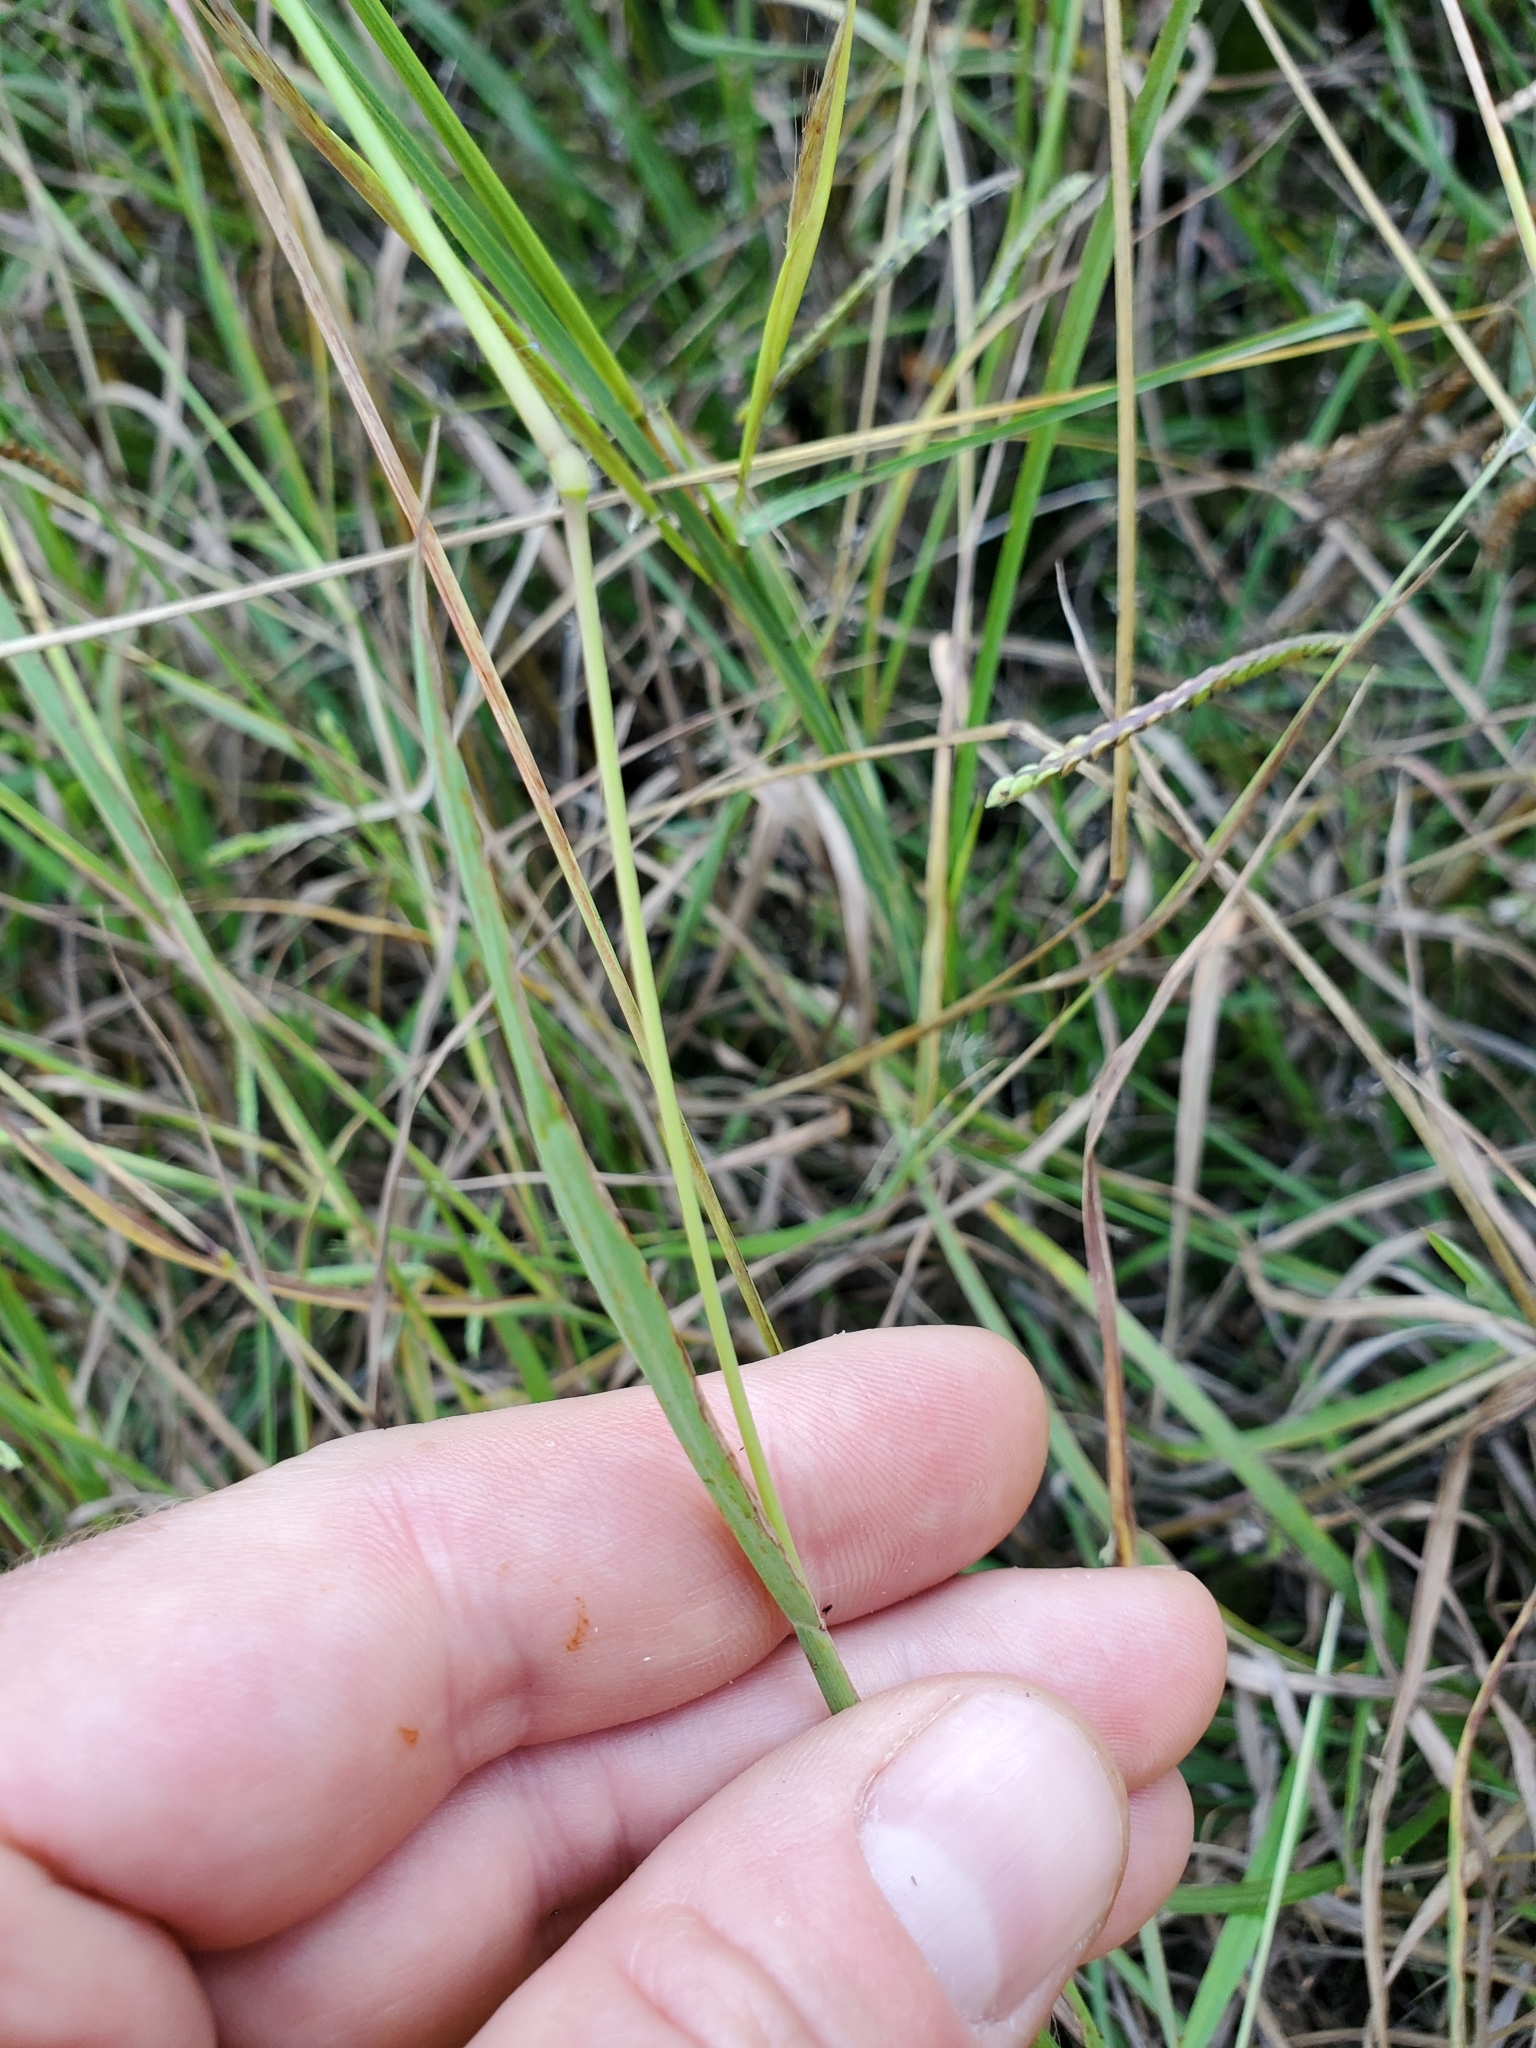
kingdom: Plantae
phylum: Tracheophyta
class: Liliopsida
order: Poales
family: Poaceae
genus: Paspalum
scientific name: Paspalum dilatatum
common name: Dallisgrass
